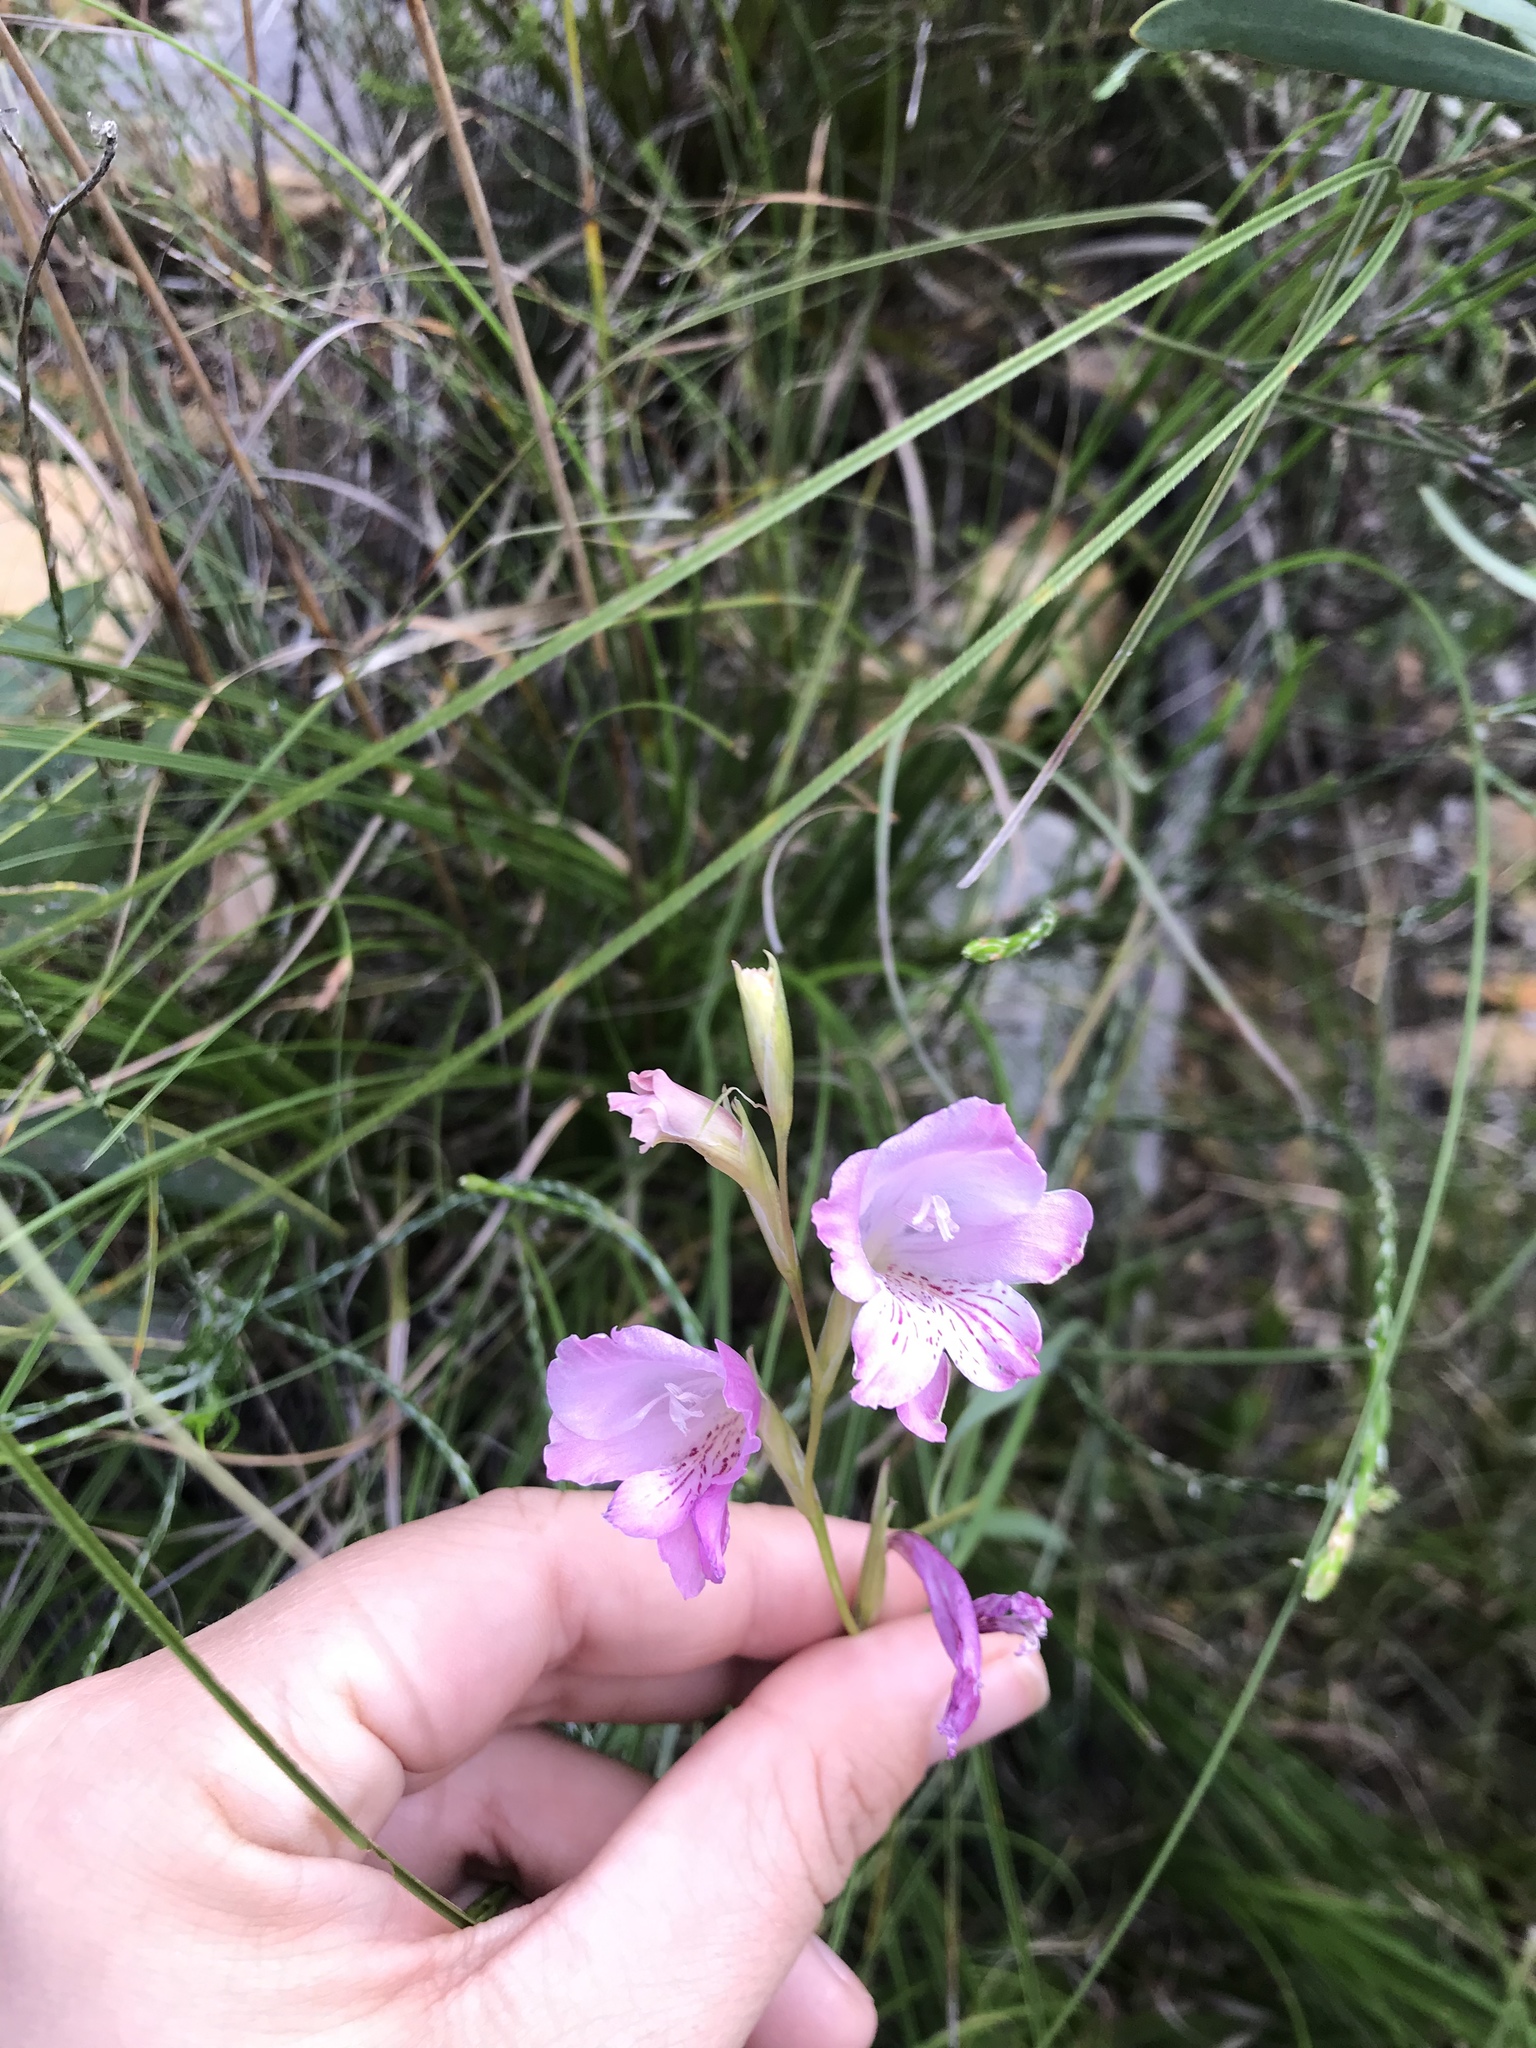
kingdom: Plantae
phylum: Tracheophyta
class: Liliopsida
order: Asparagales
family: Iridaceae
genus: Gladiolus
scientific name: Gladiolus hirsutus
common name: Small pink afrikaner
